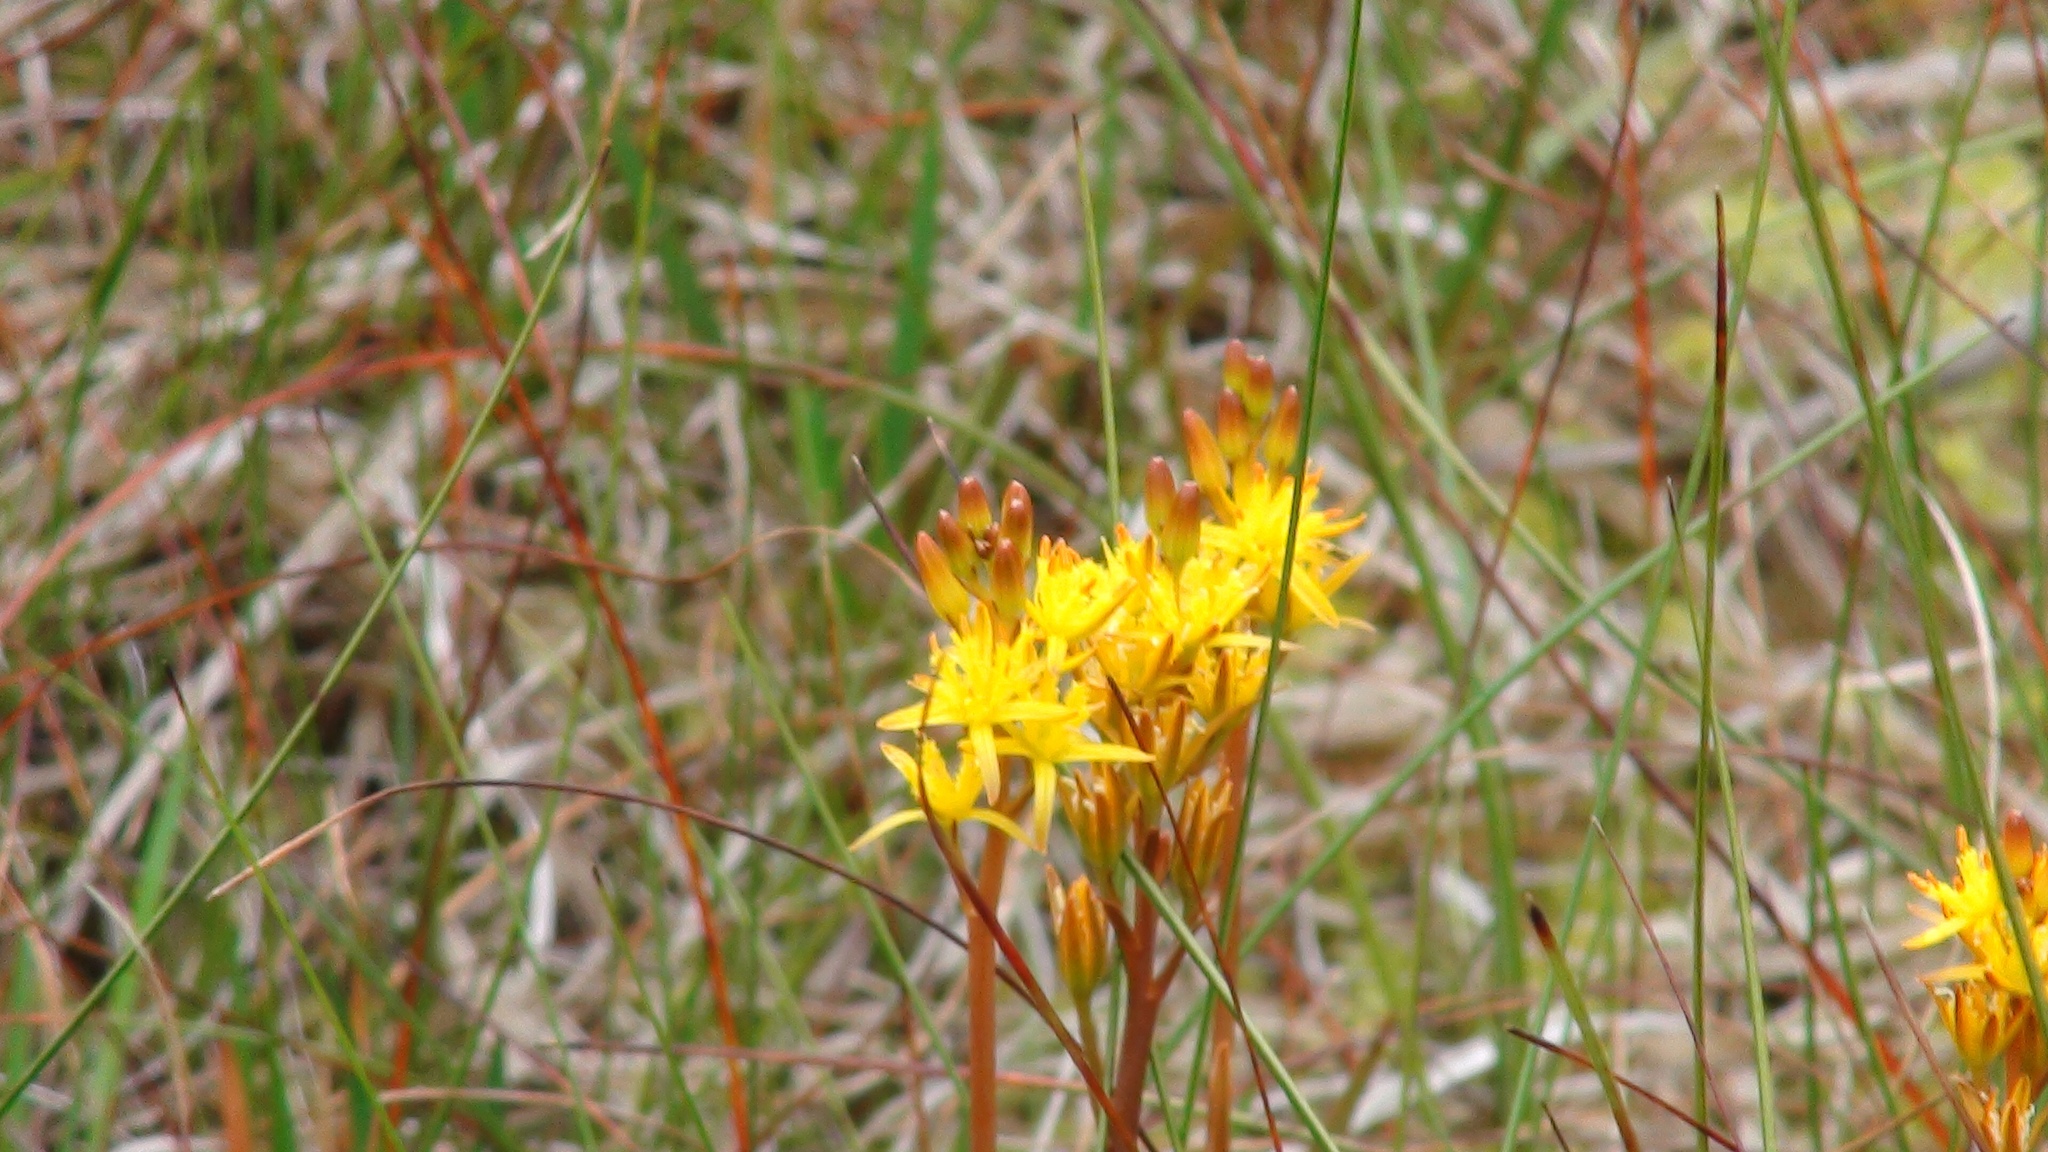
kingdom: Plantae
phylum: Tracheophyta
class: Liliopsida
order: Dioscoreales
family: Nartheciaceae
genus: Narthecium
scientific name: Narthecium ossifragum
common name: Bog asphodel
